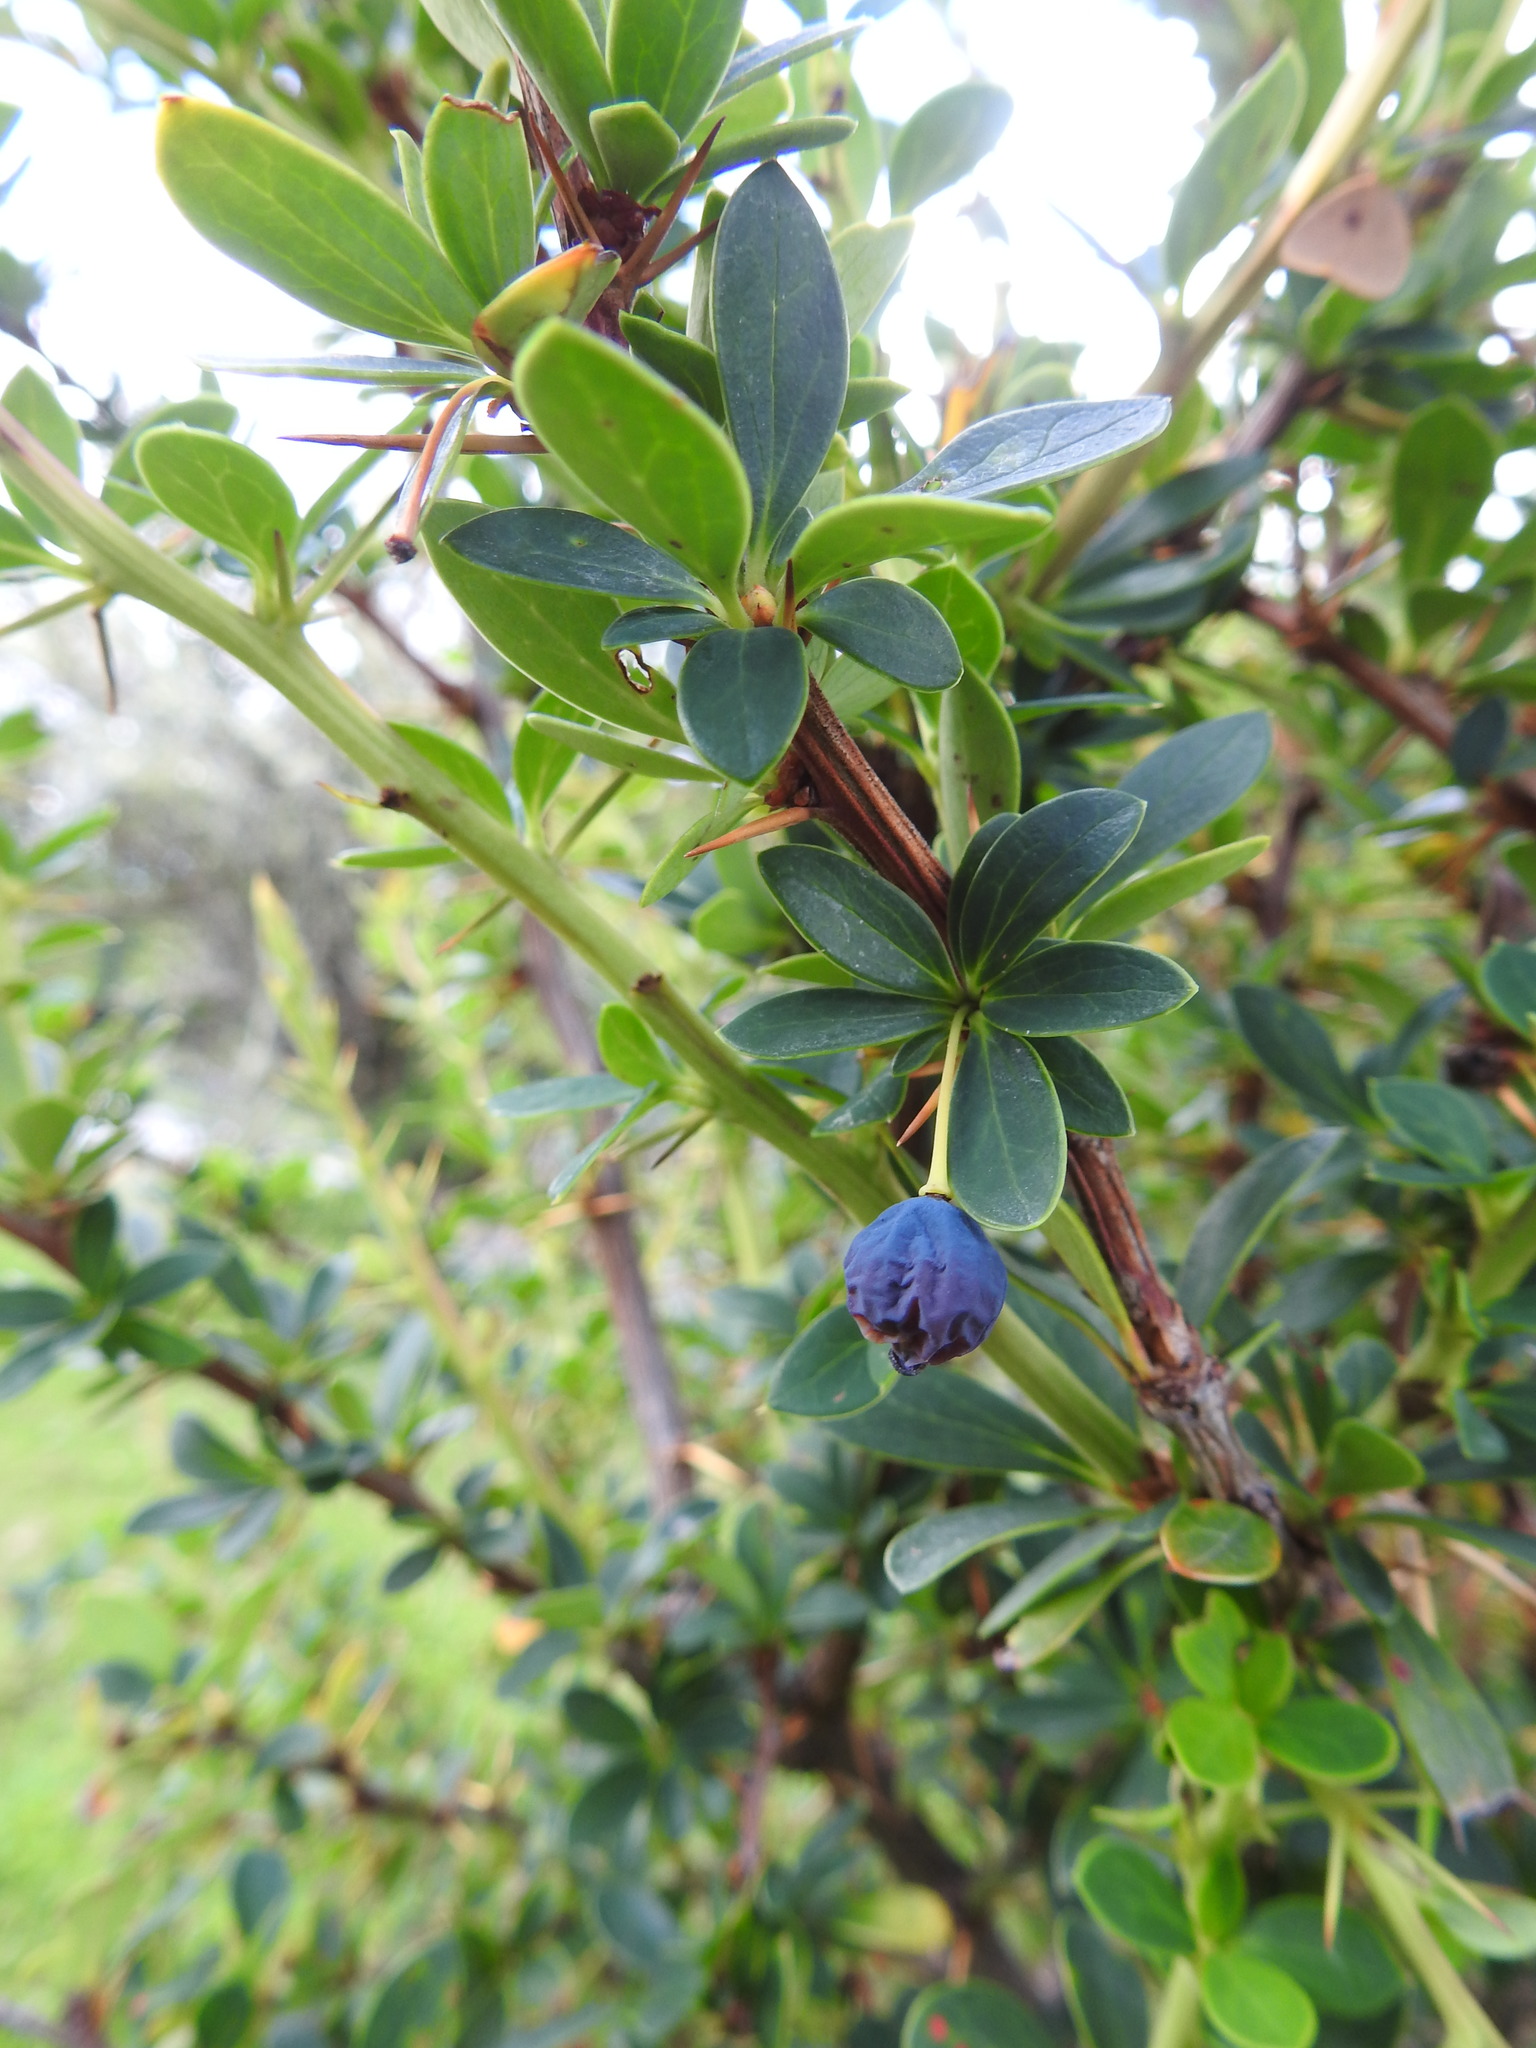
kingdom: Plantae
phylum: Tracheophyta
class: Magnoliopsida
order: Ranunculales
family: Berberidaceae
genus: Berberis
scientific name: Berberis microphylla
